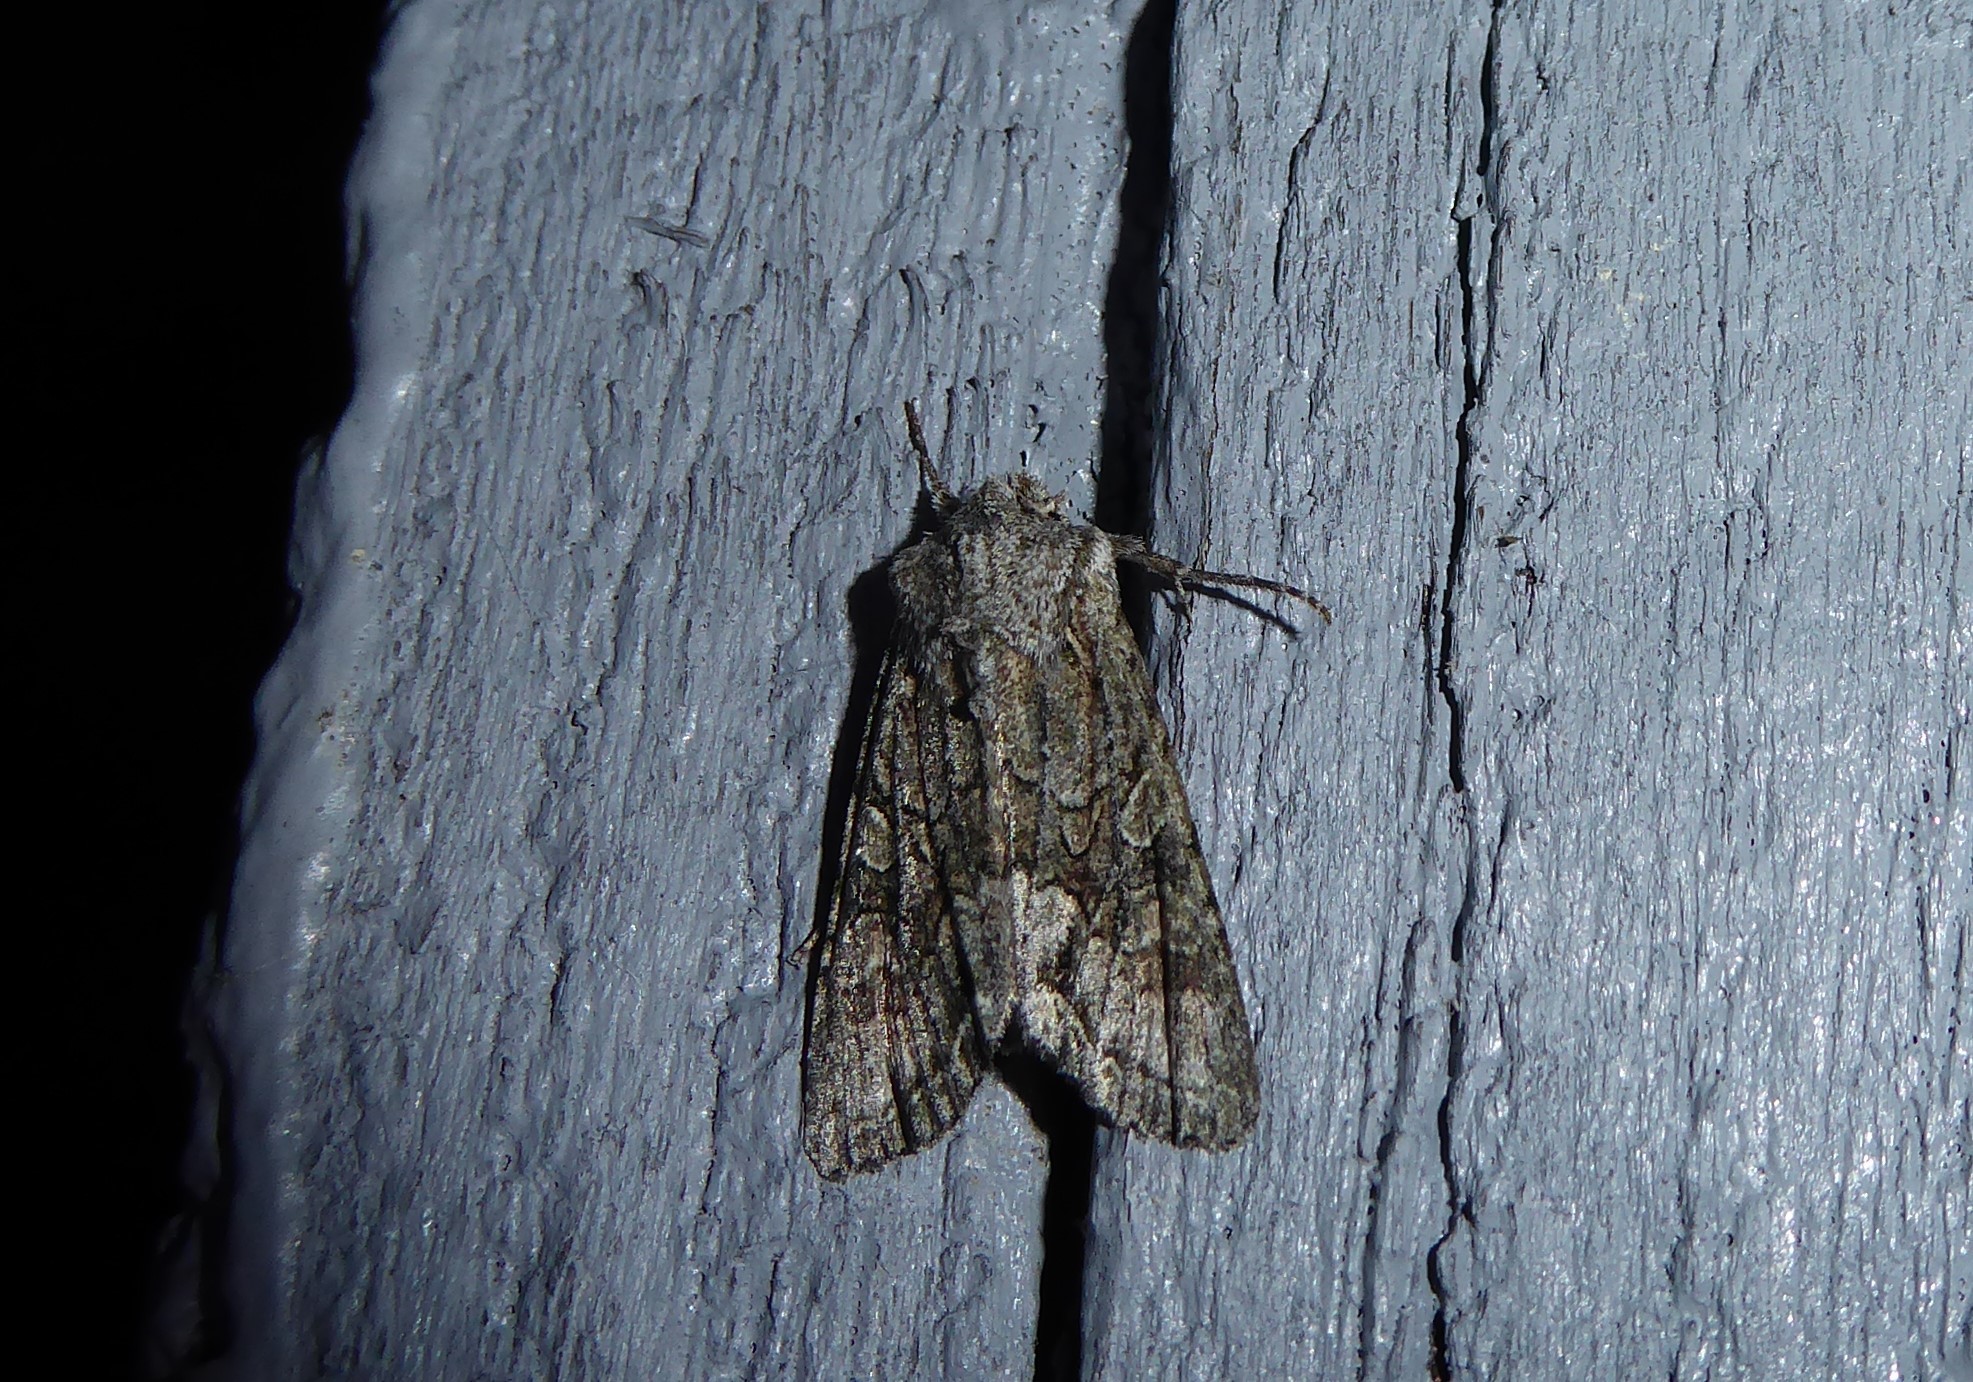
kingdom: Animalia
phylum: Arthropoda
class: Insecta
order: Lepidoptera
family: Noctuidae
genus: Ichneutica
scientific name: Ichneutica mutans
